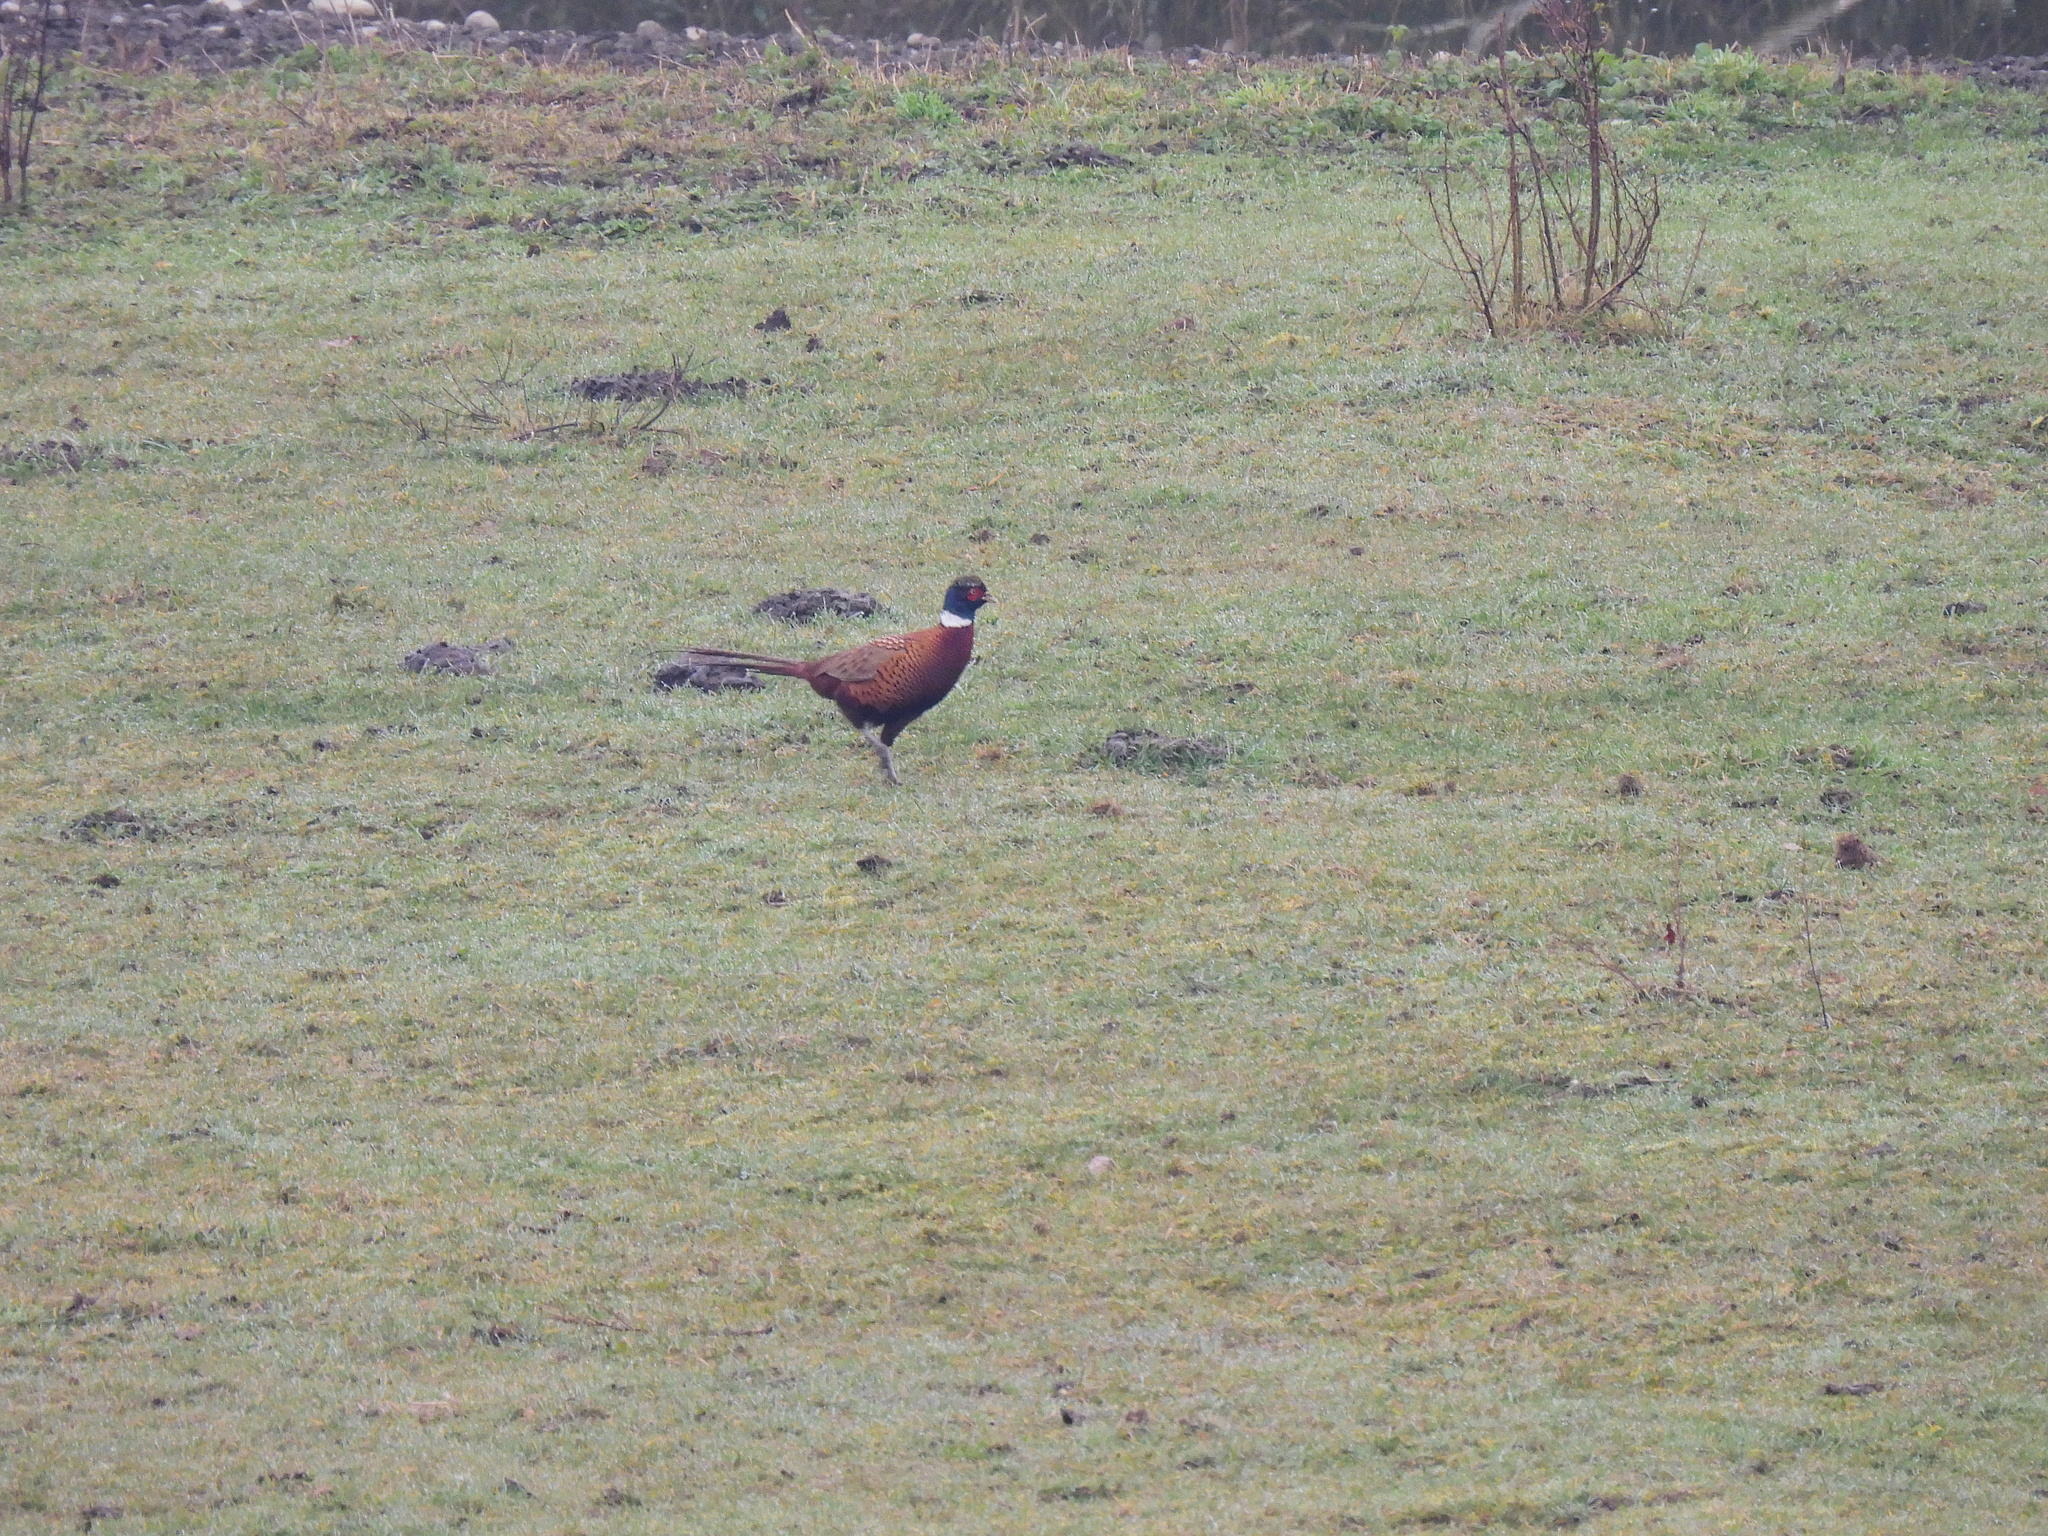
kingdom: Animalia
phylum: Chordata
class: Aves
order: Galliformes
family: Phasianidae
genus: Phasianus
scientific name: Phasianus colchicus
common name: Common pheasant
